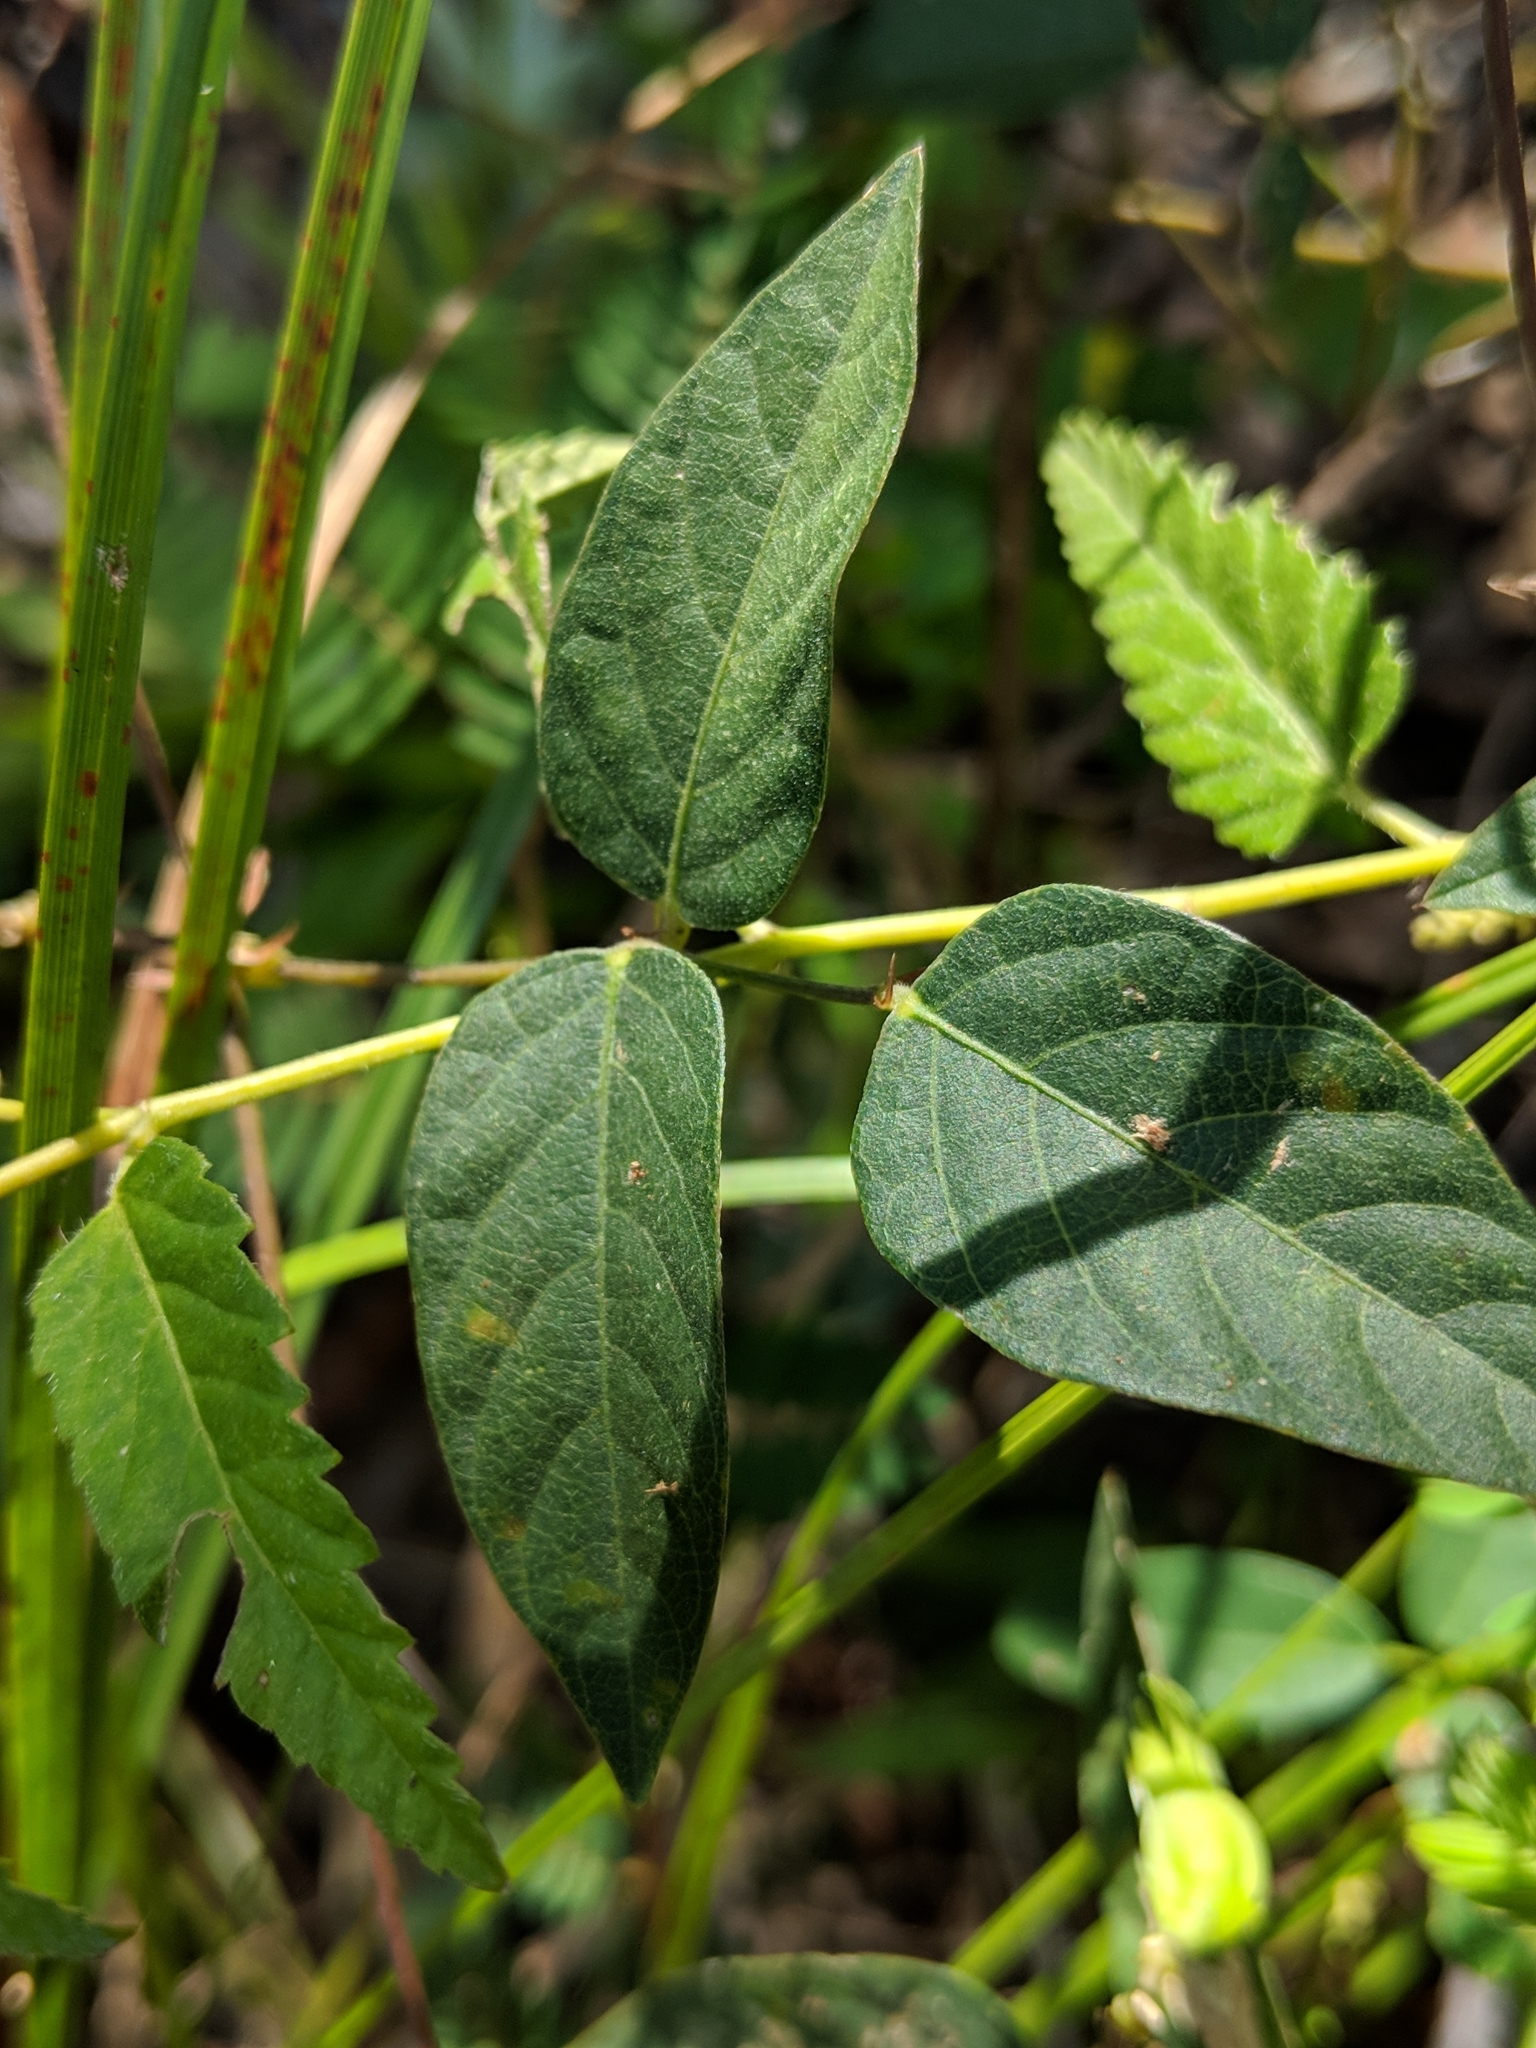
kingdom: Plantae
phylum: Tracheophyta
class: Magnoliopsida
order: Fabales
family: Fabaceae
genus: Strophostyles
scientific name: Strophostyles umbellata
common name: Perennial wild bean
